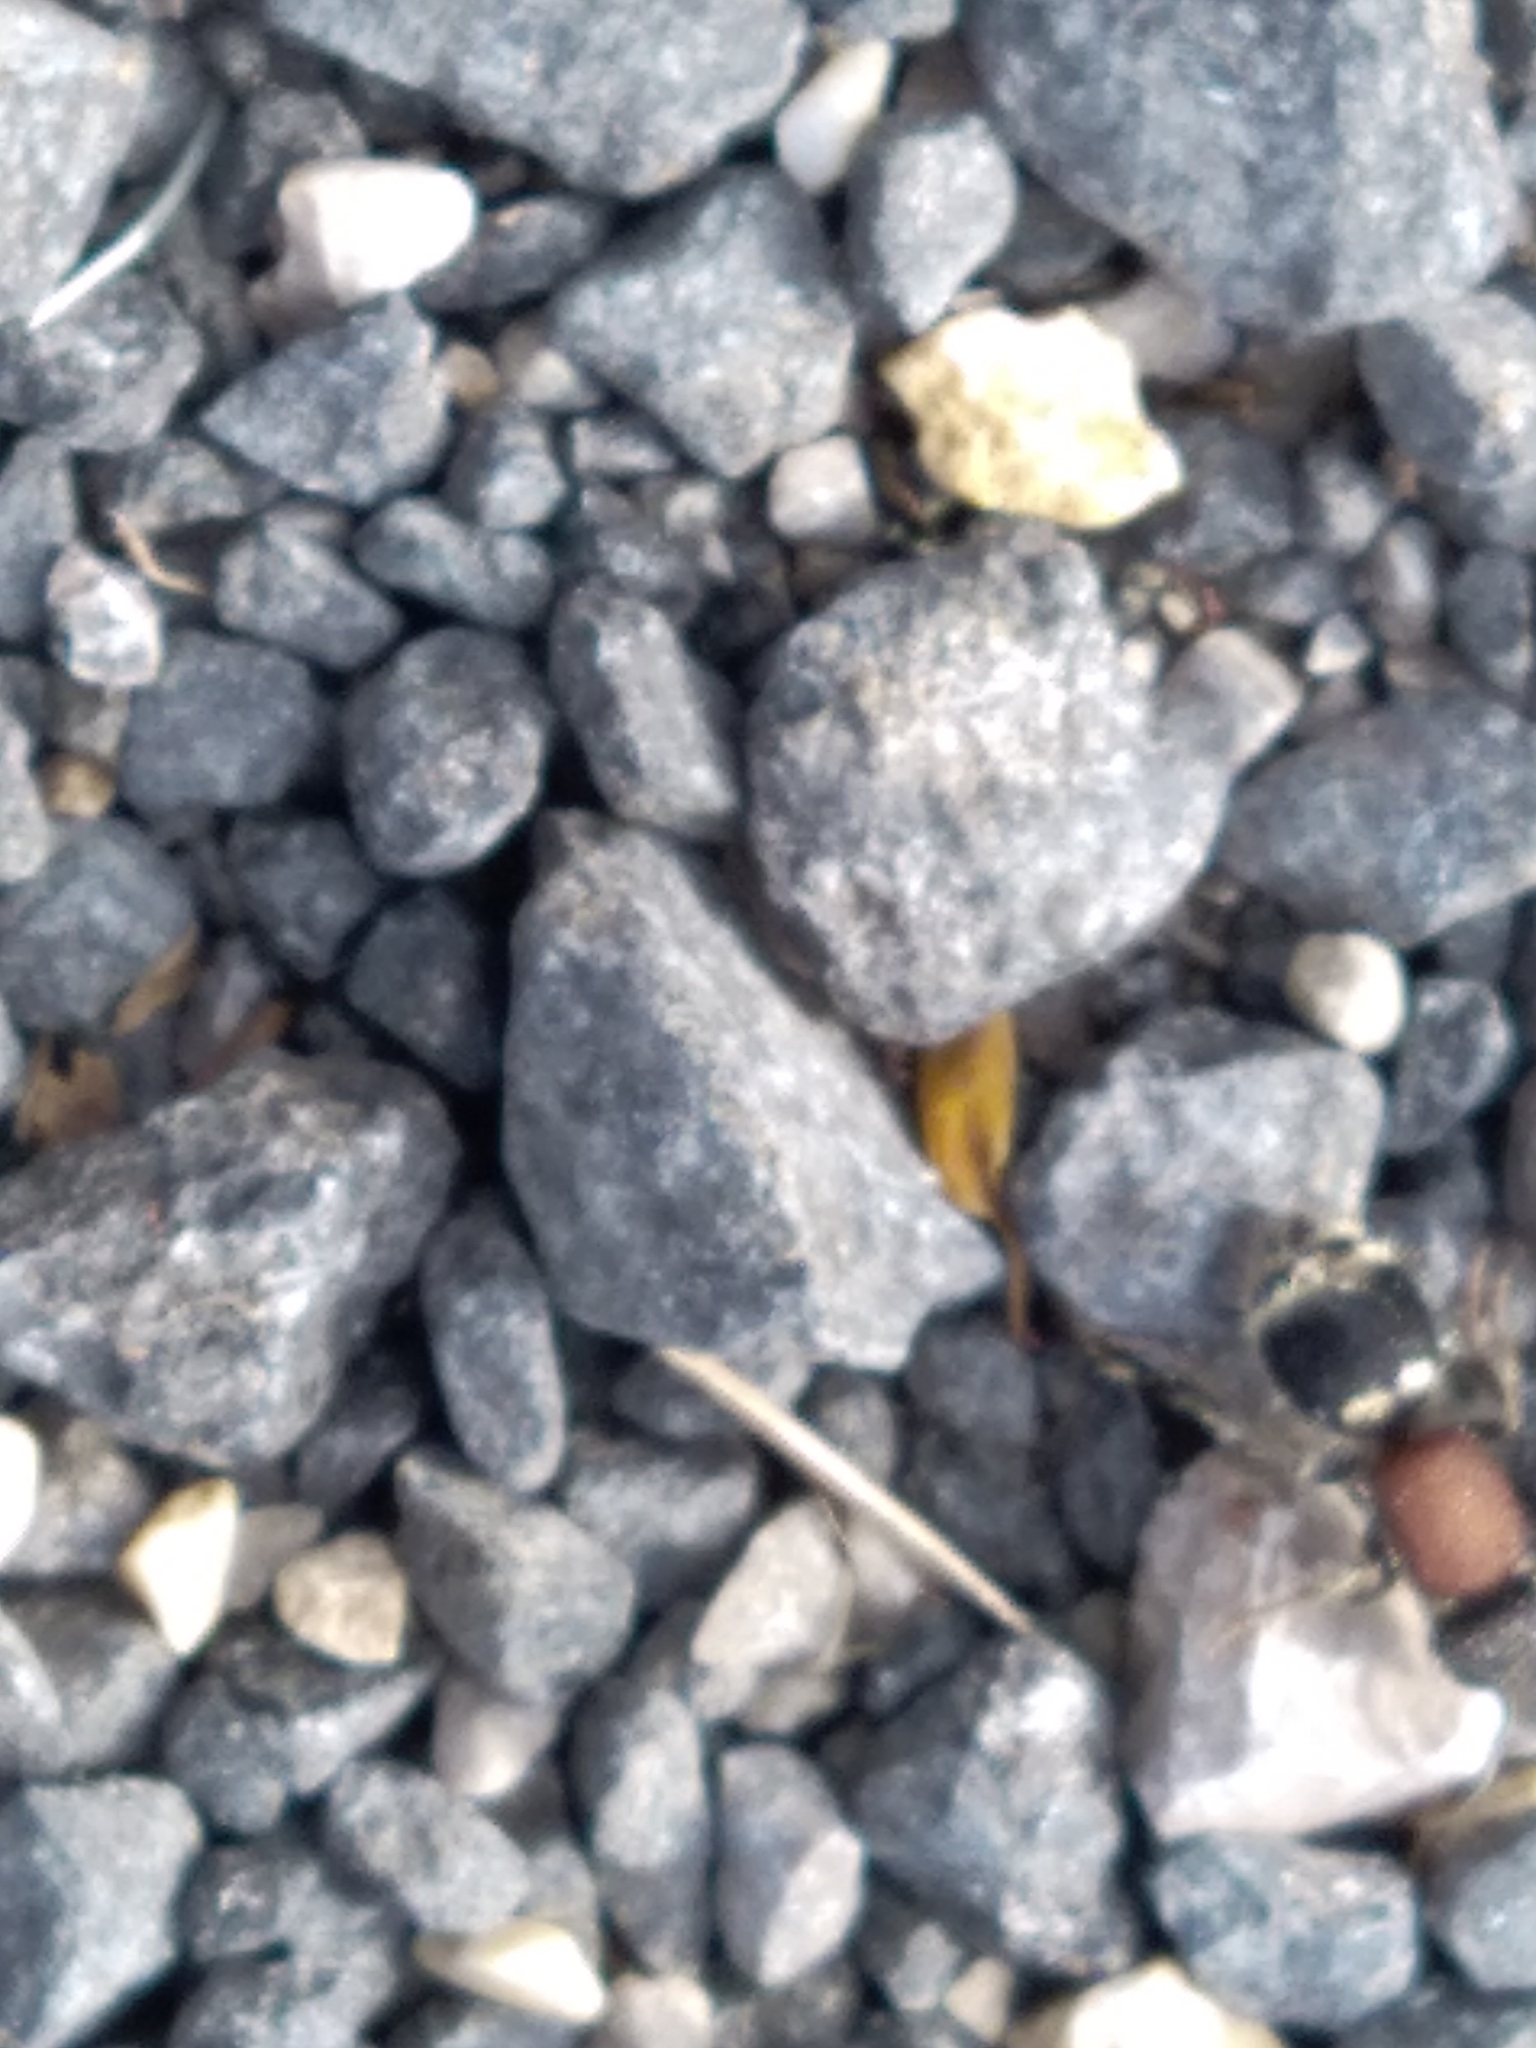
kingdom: Animalia
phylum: Arthropoda
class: Insecta
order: Hymenoptera
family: Mutillidae
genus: Tropidotilla
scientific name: Tropidotilla litoralis
